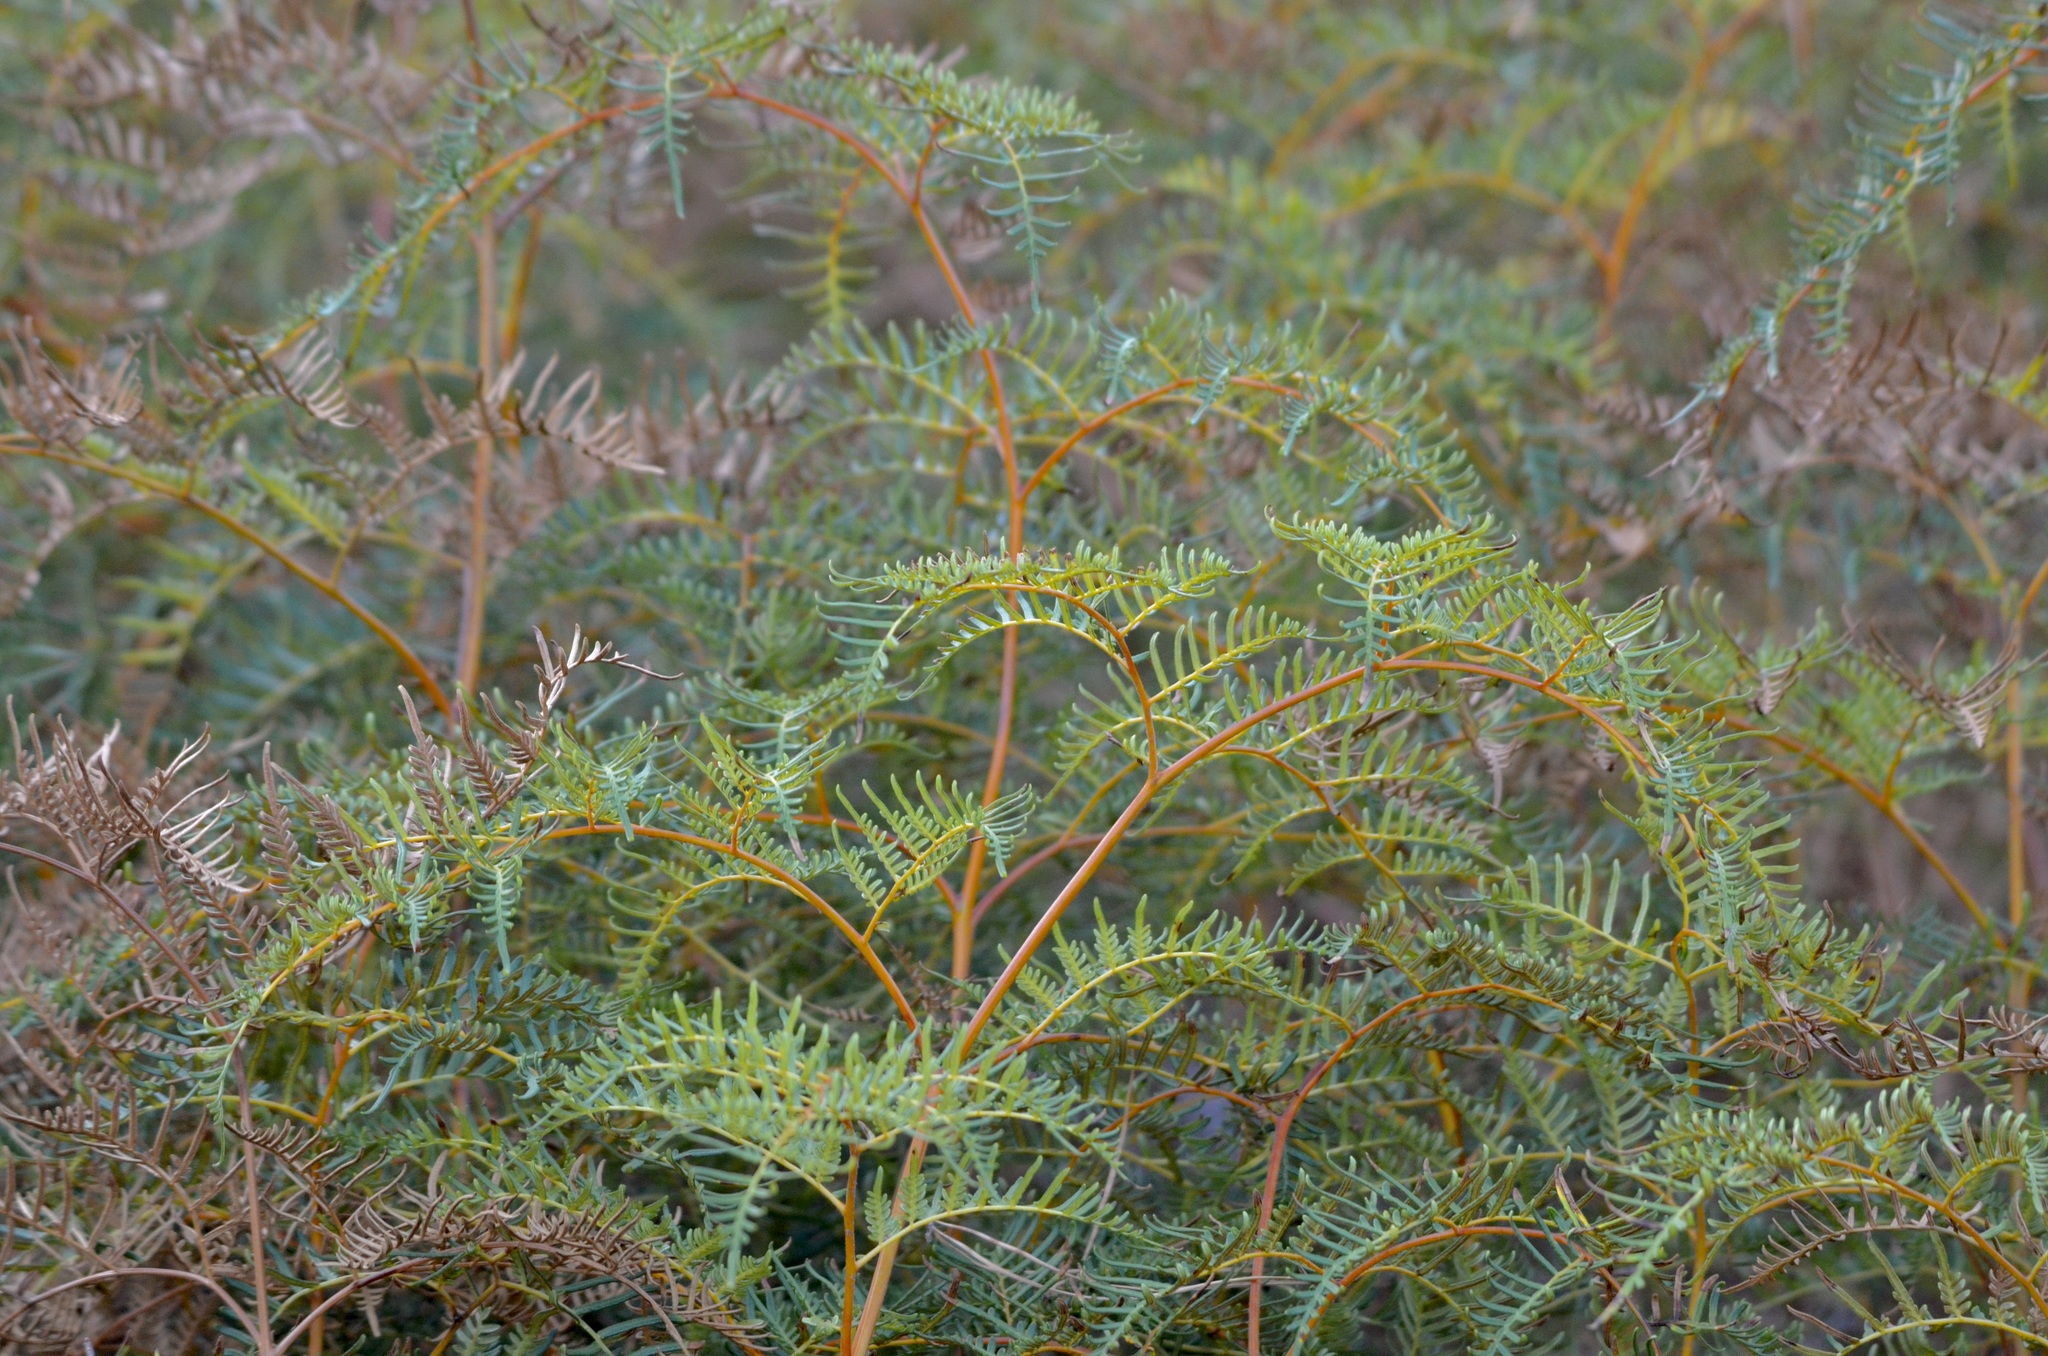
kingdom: Plantae
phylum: Tracheophyta
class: Polypodiopsida
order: Polypodiales
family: Dennstaedtiaceae
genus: Pteridium
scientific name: Pteridium esculentum
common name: Bracken fern
